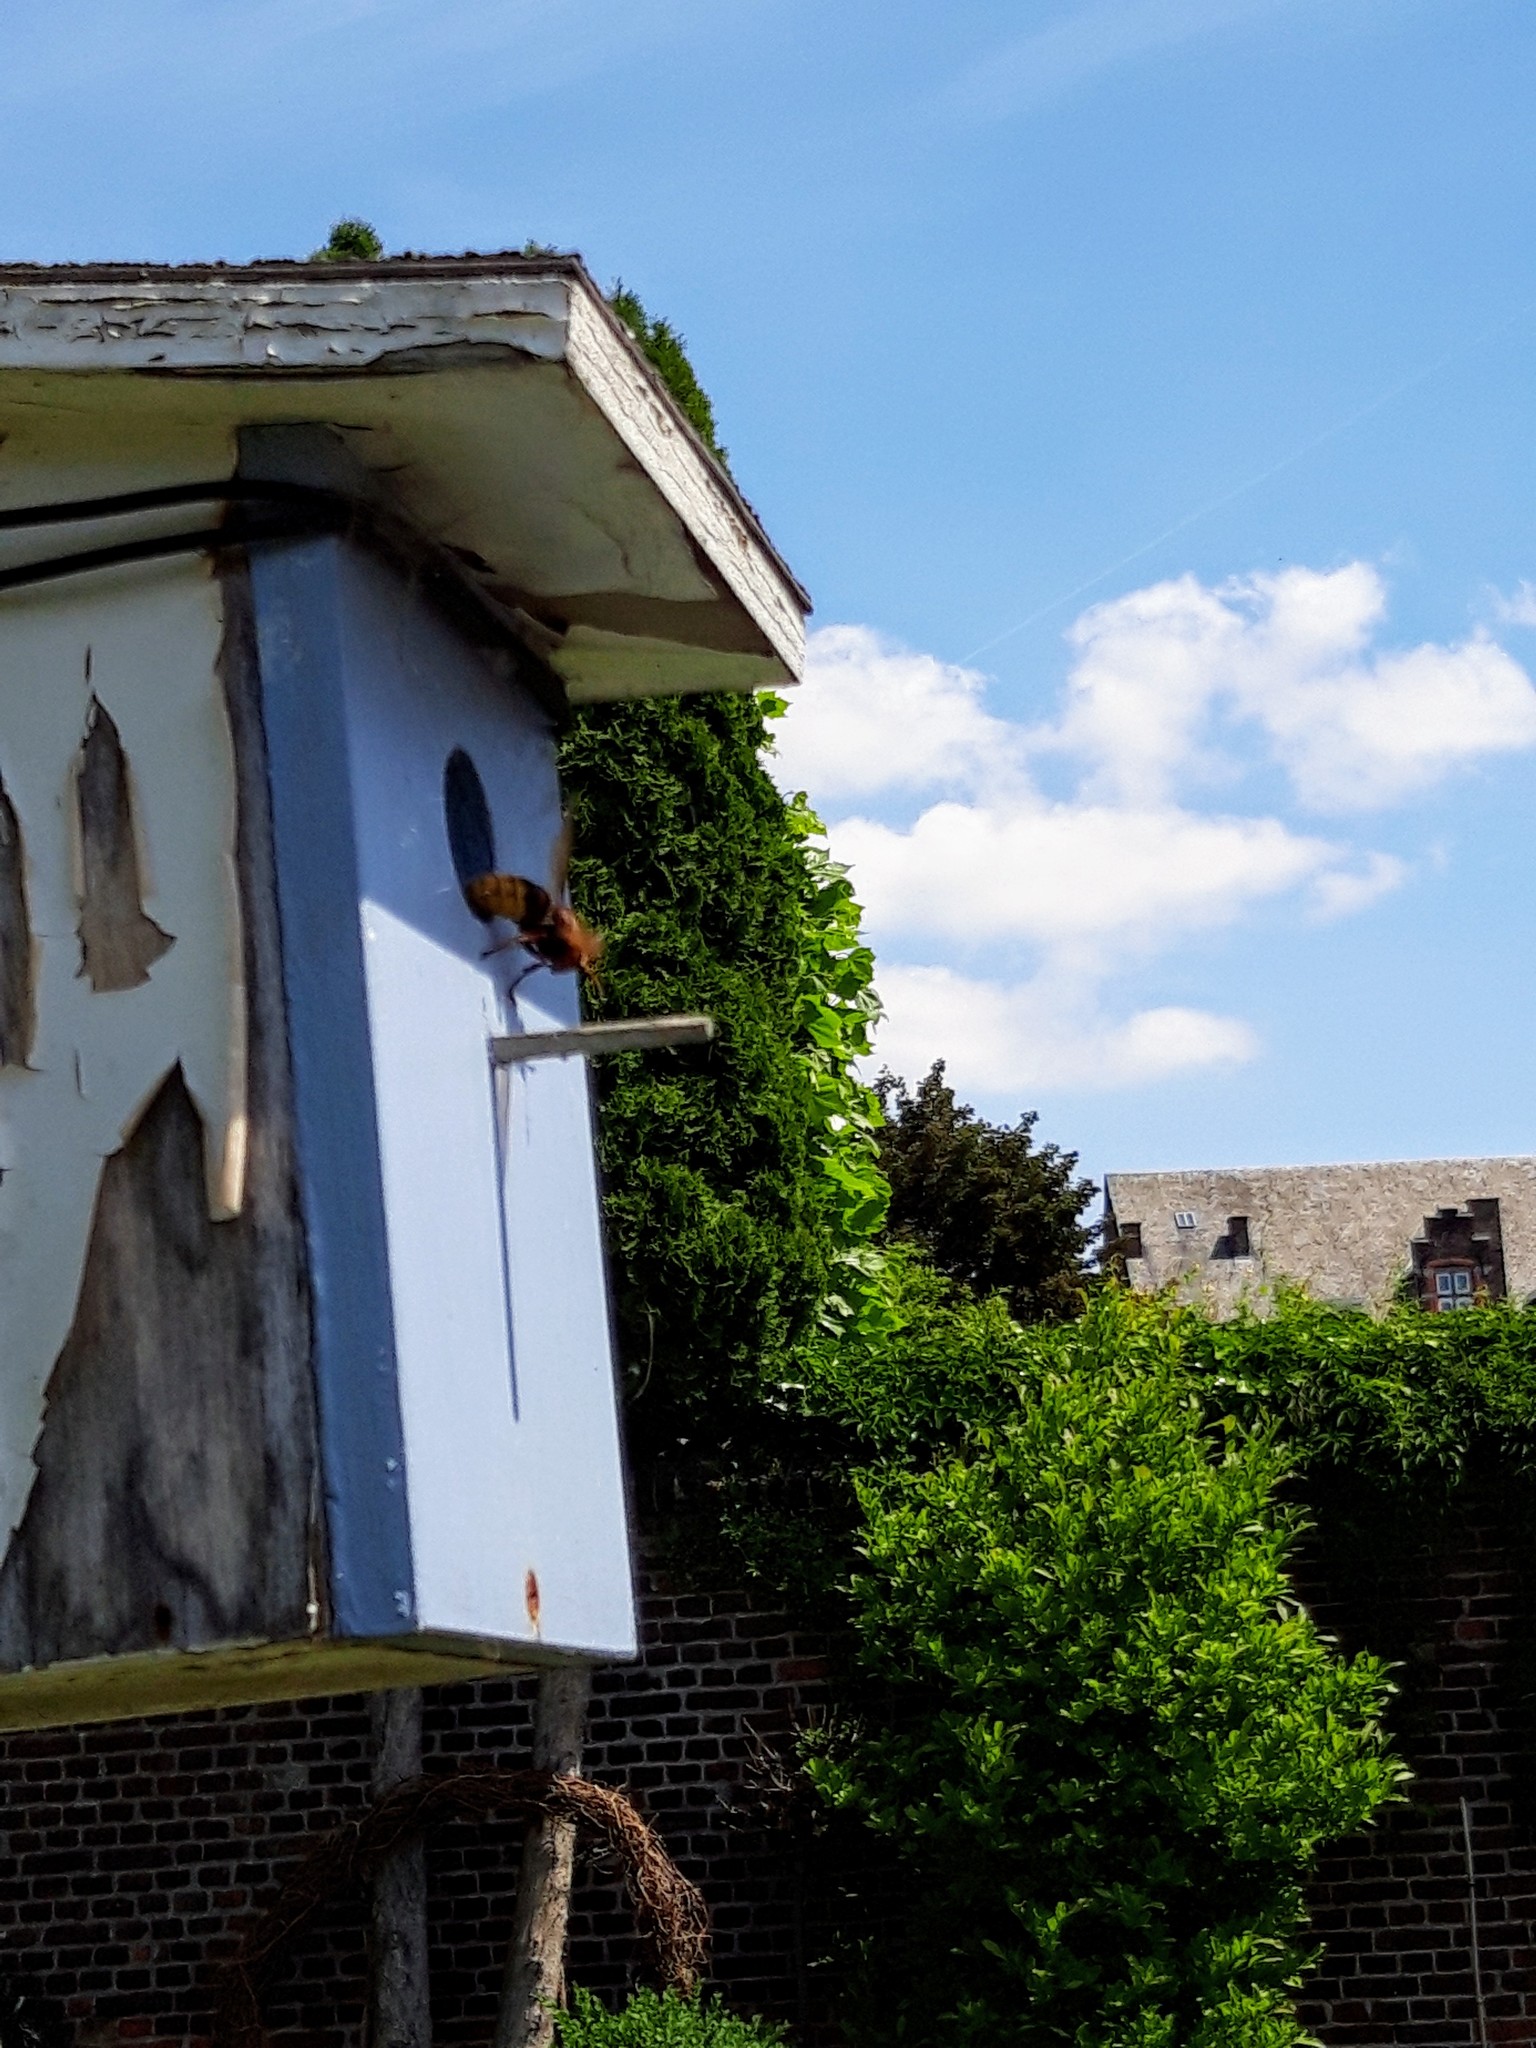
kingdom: Animalia
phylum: Arthropoda
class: Insecta
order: Hymenoptera
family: Vespidae
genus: Vespa
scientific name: Vespa crabro
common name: Hornet
